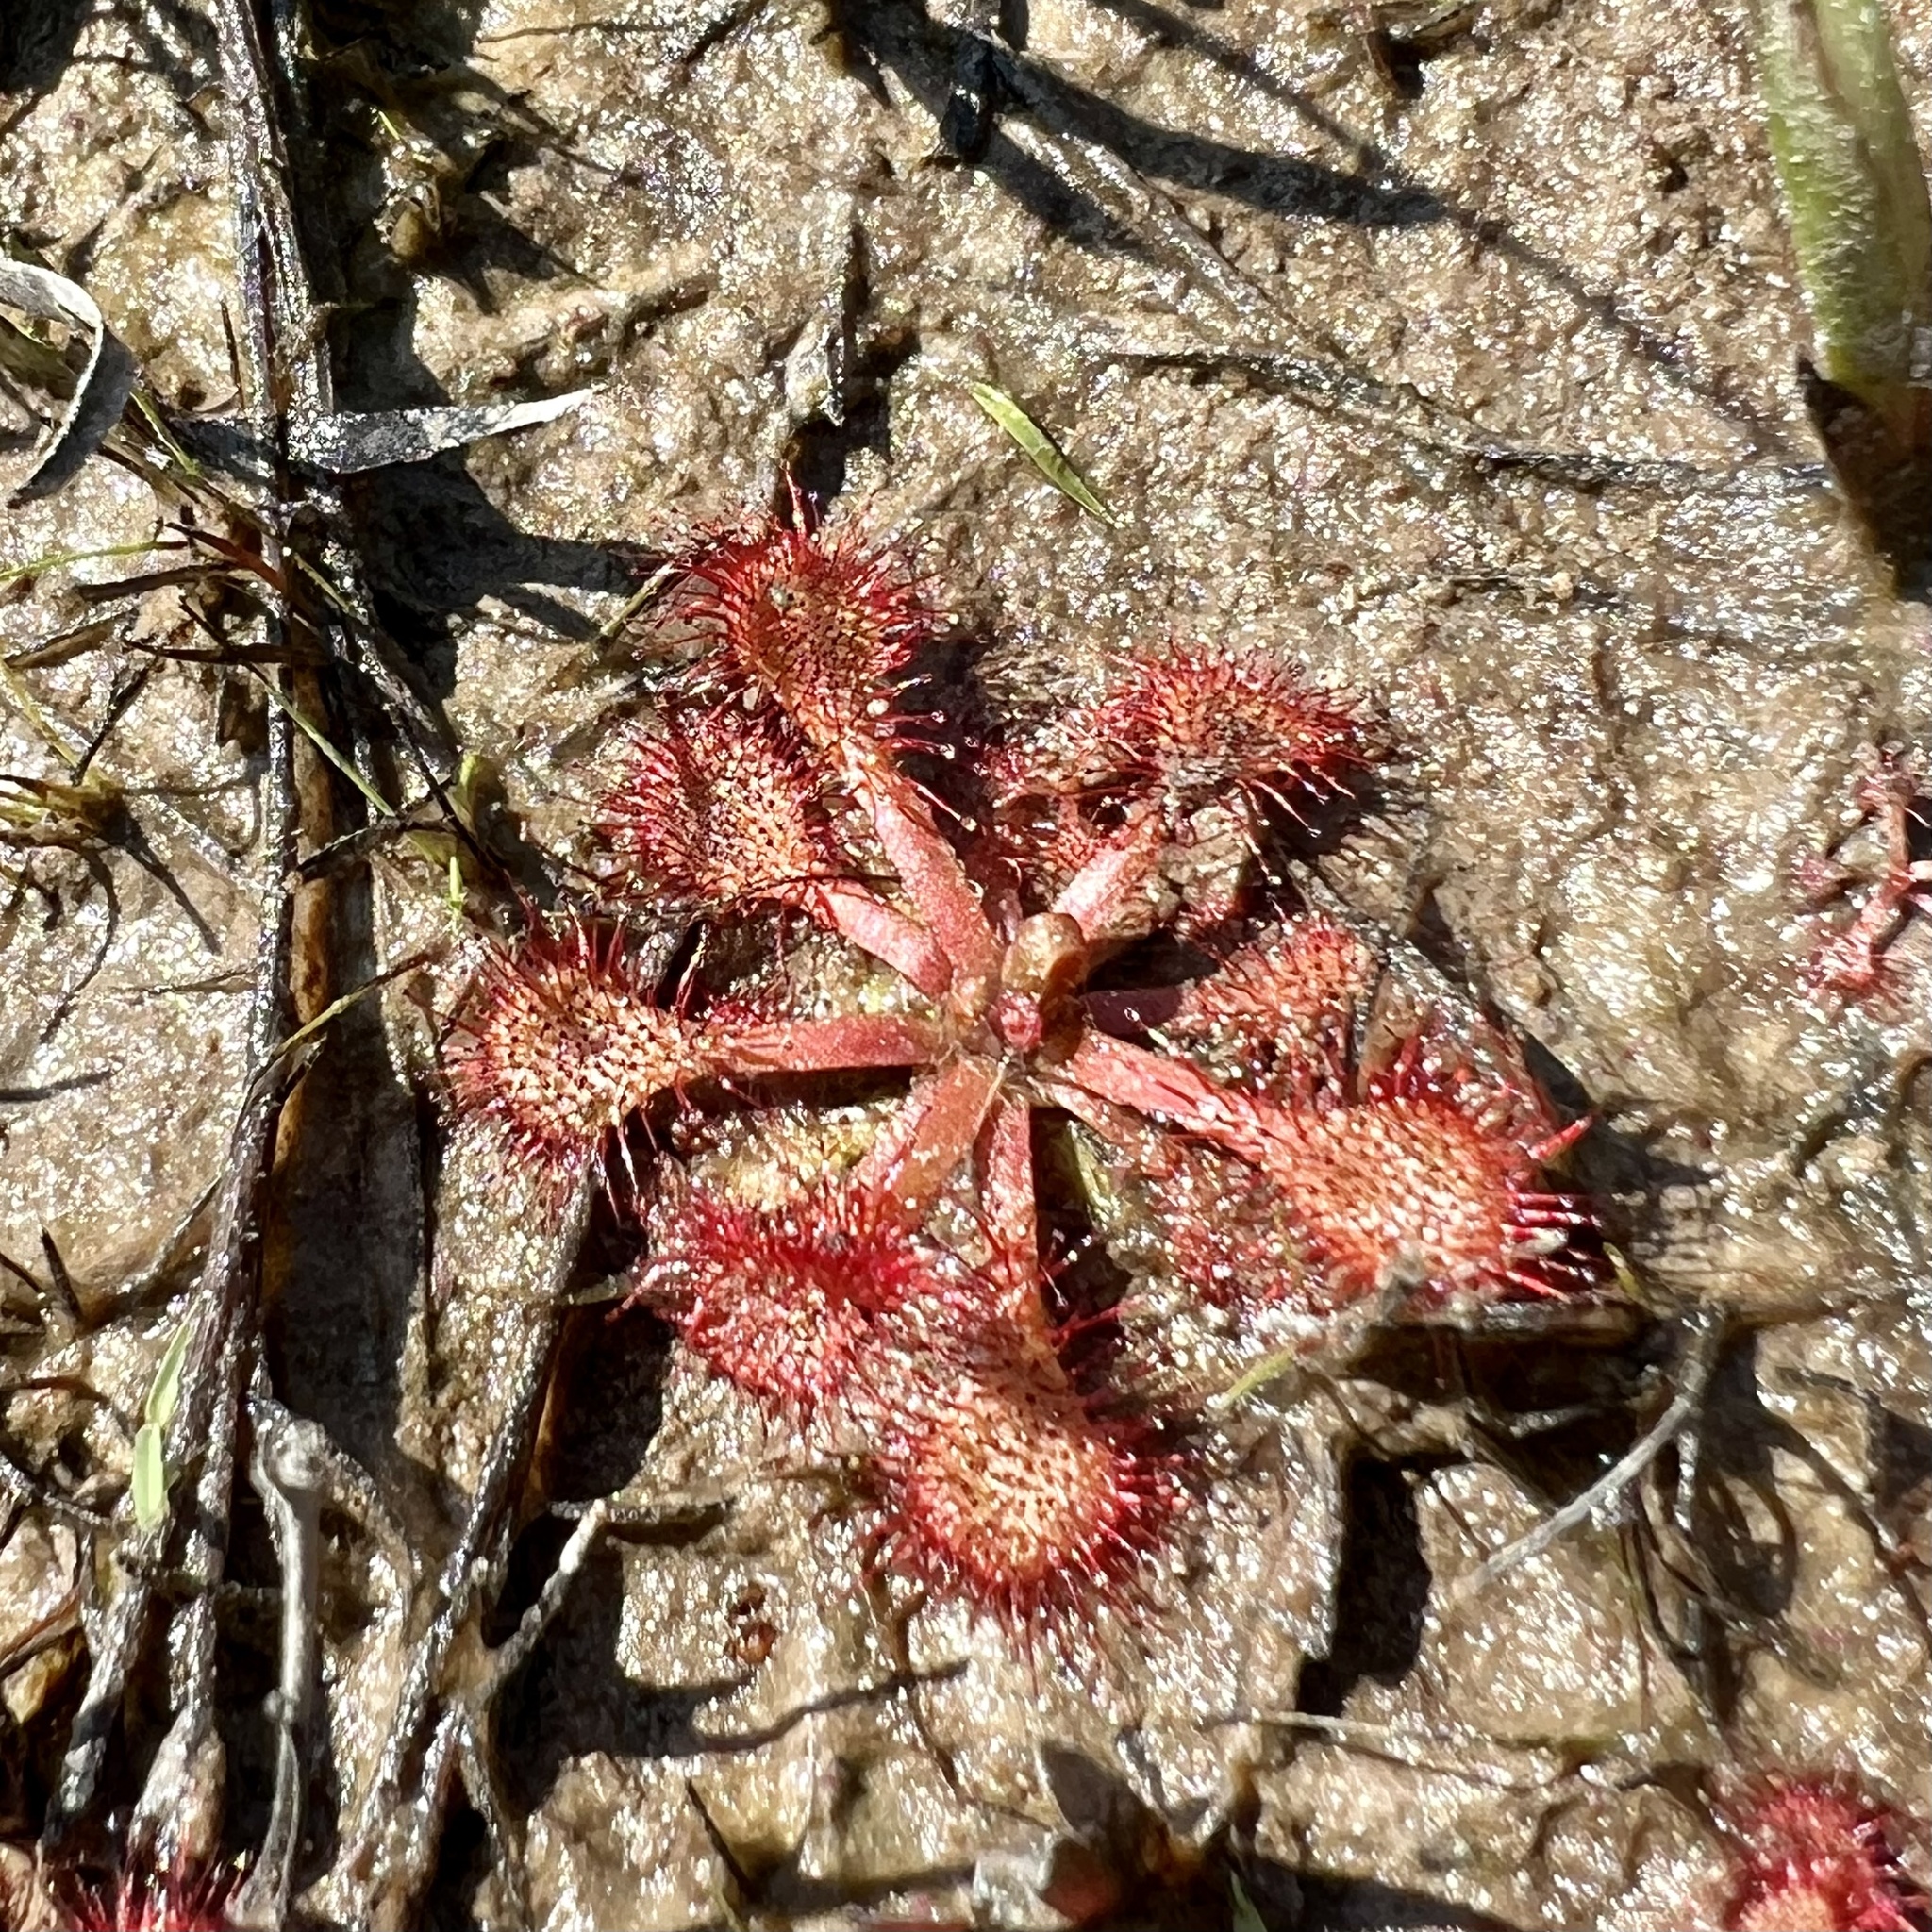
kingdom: Plantae
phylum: Tracheophyta
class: Magnoliopsida
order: Caryophyllales
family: Droseraceae
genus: Drosera
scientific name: Drosera capillaris
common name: Pink sundew
